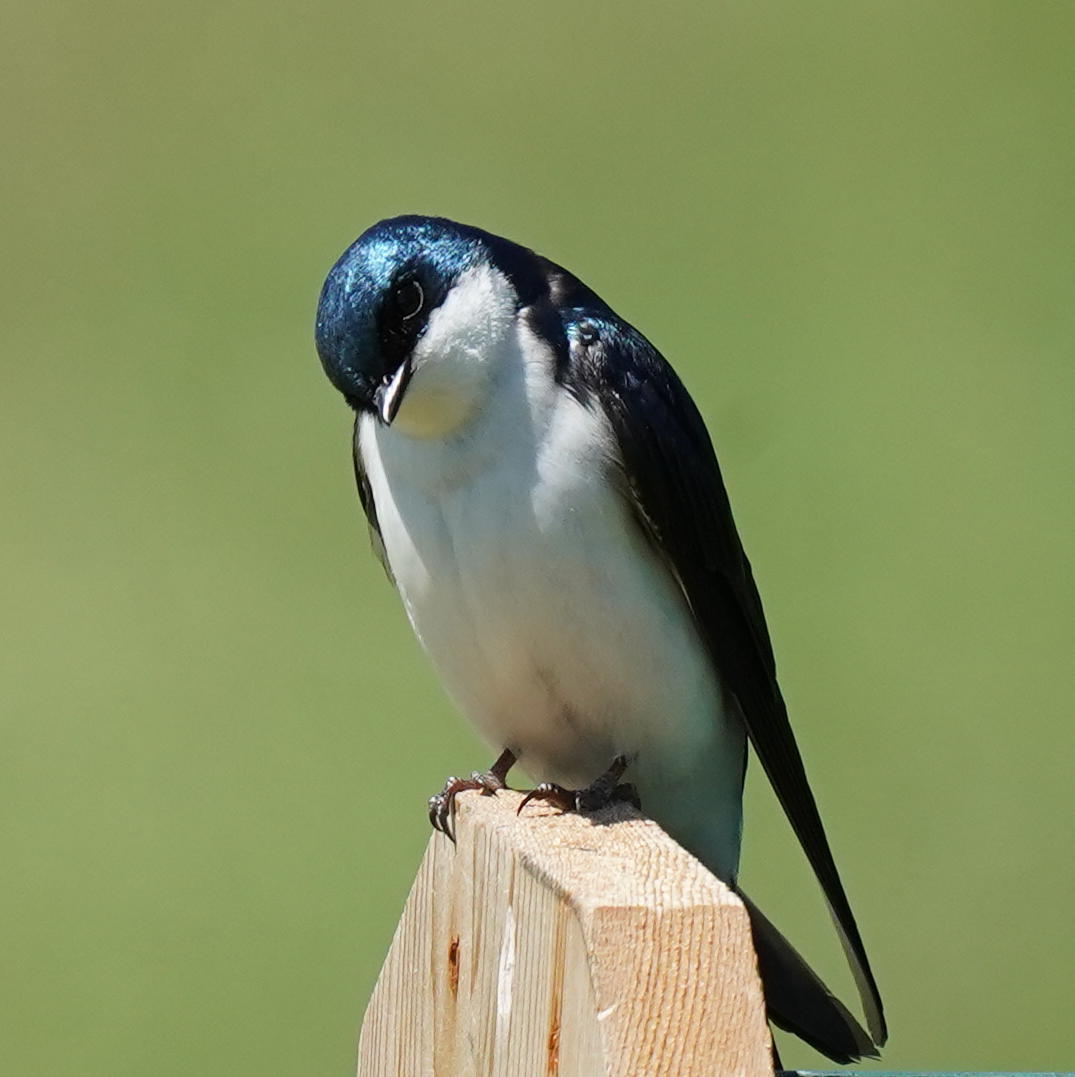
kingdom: Animalia
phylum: Chordata
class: Aves
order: Passeriformes
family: Hirundinidae
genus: Tachycineta
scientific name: Tachycineta bicolor
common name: Tree swallow
